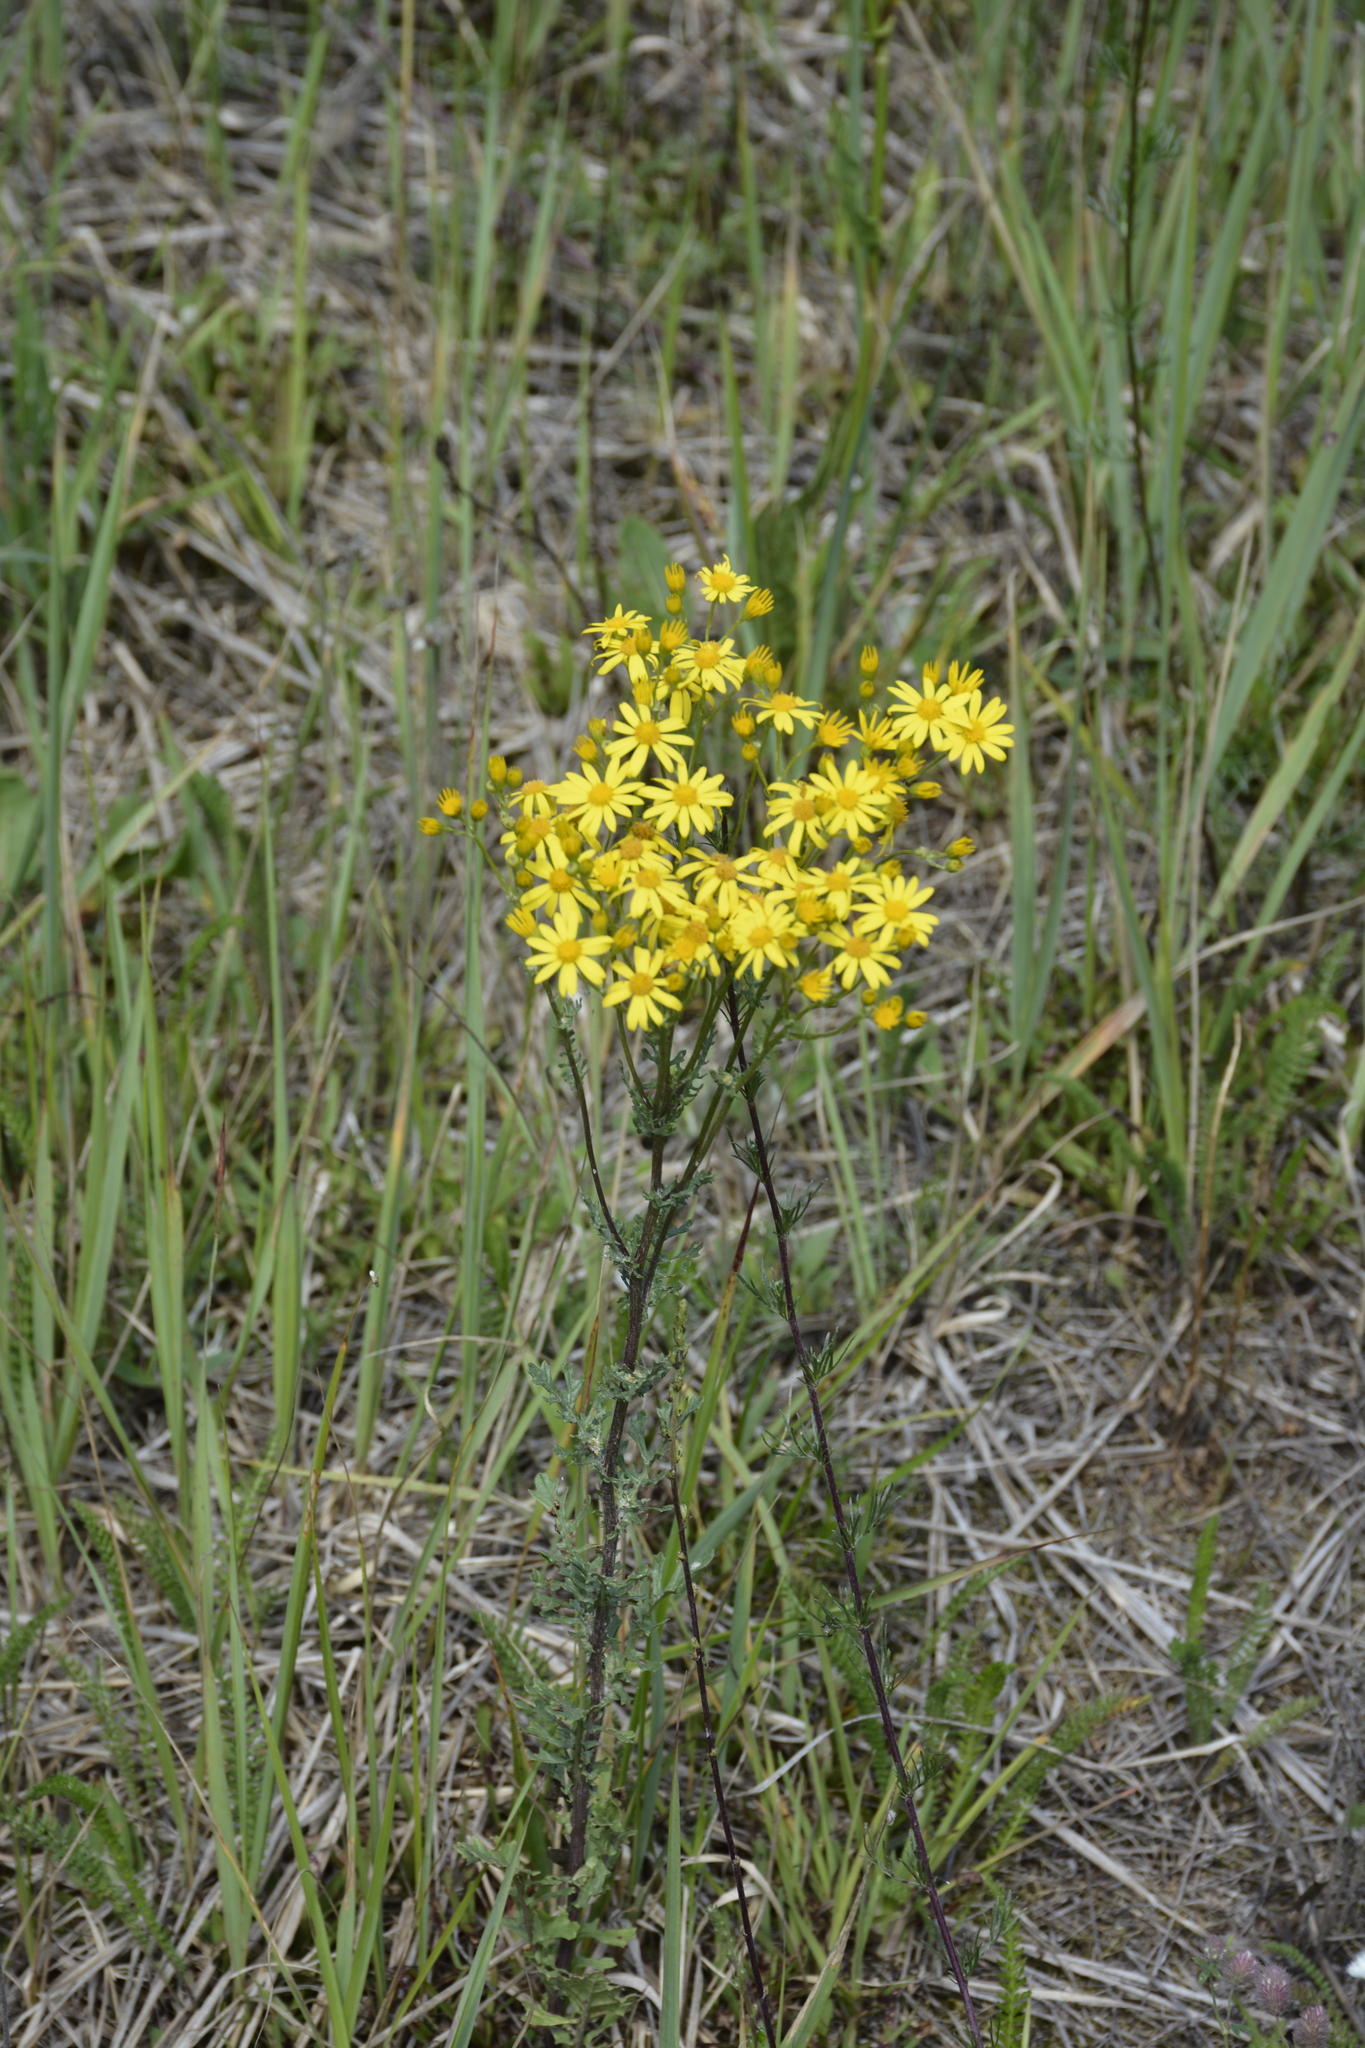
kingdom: Plantae
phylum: Tracheophyta
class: Magnoliopsida
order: Asterales
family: Asteraceae
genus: Jacobaea
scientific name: Jacobaea vulgaris
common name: Stinking willie
